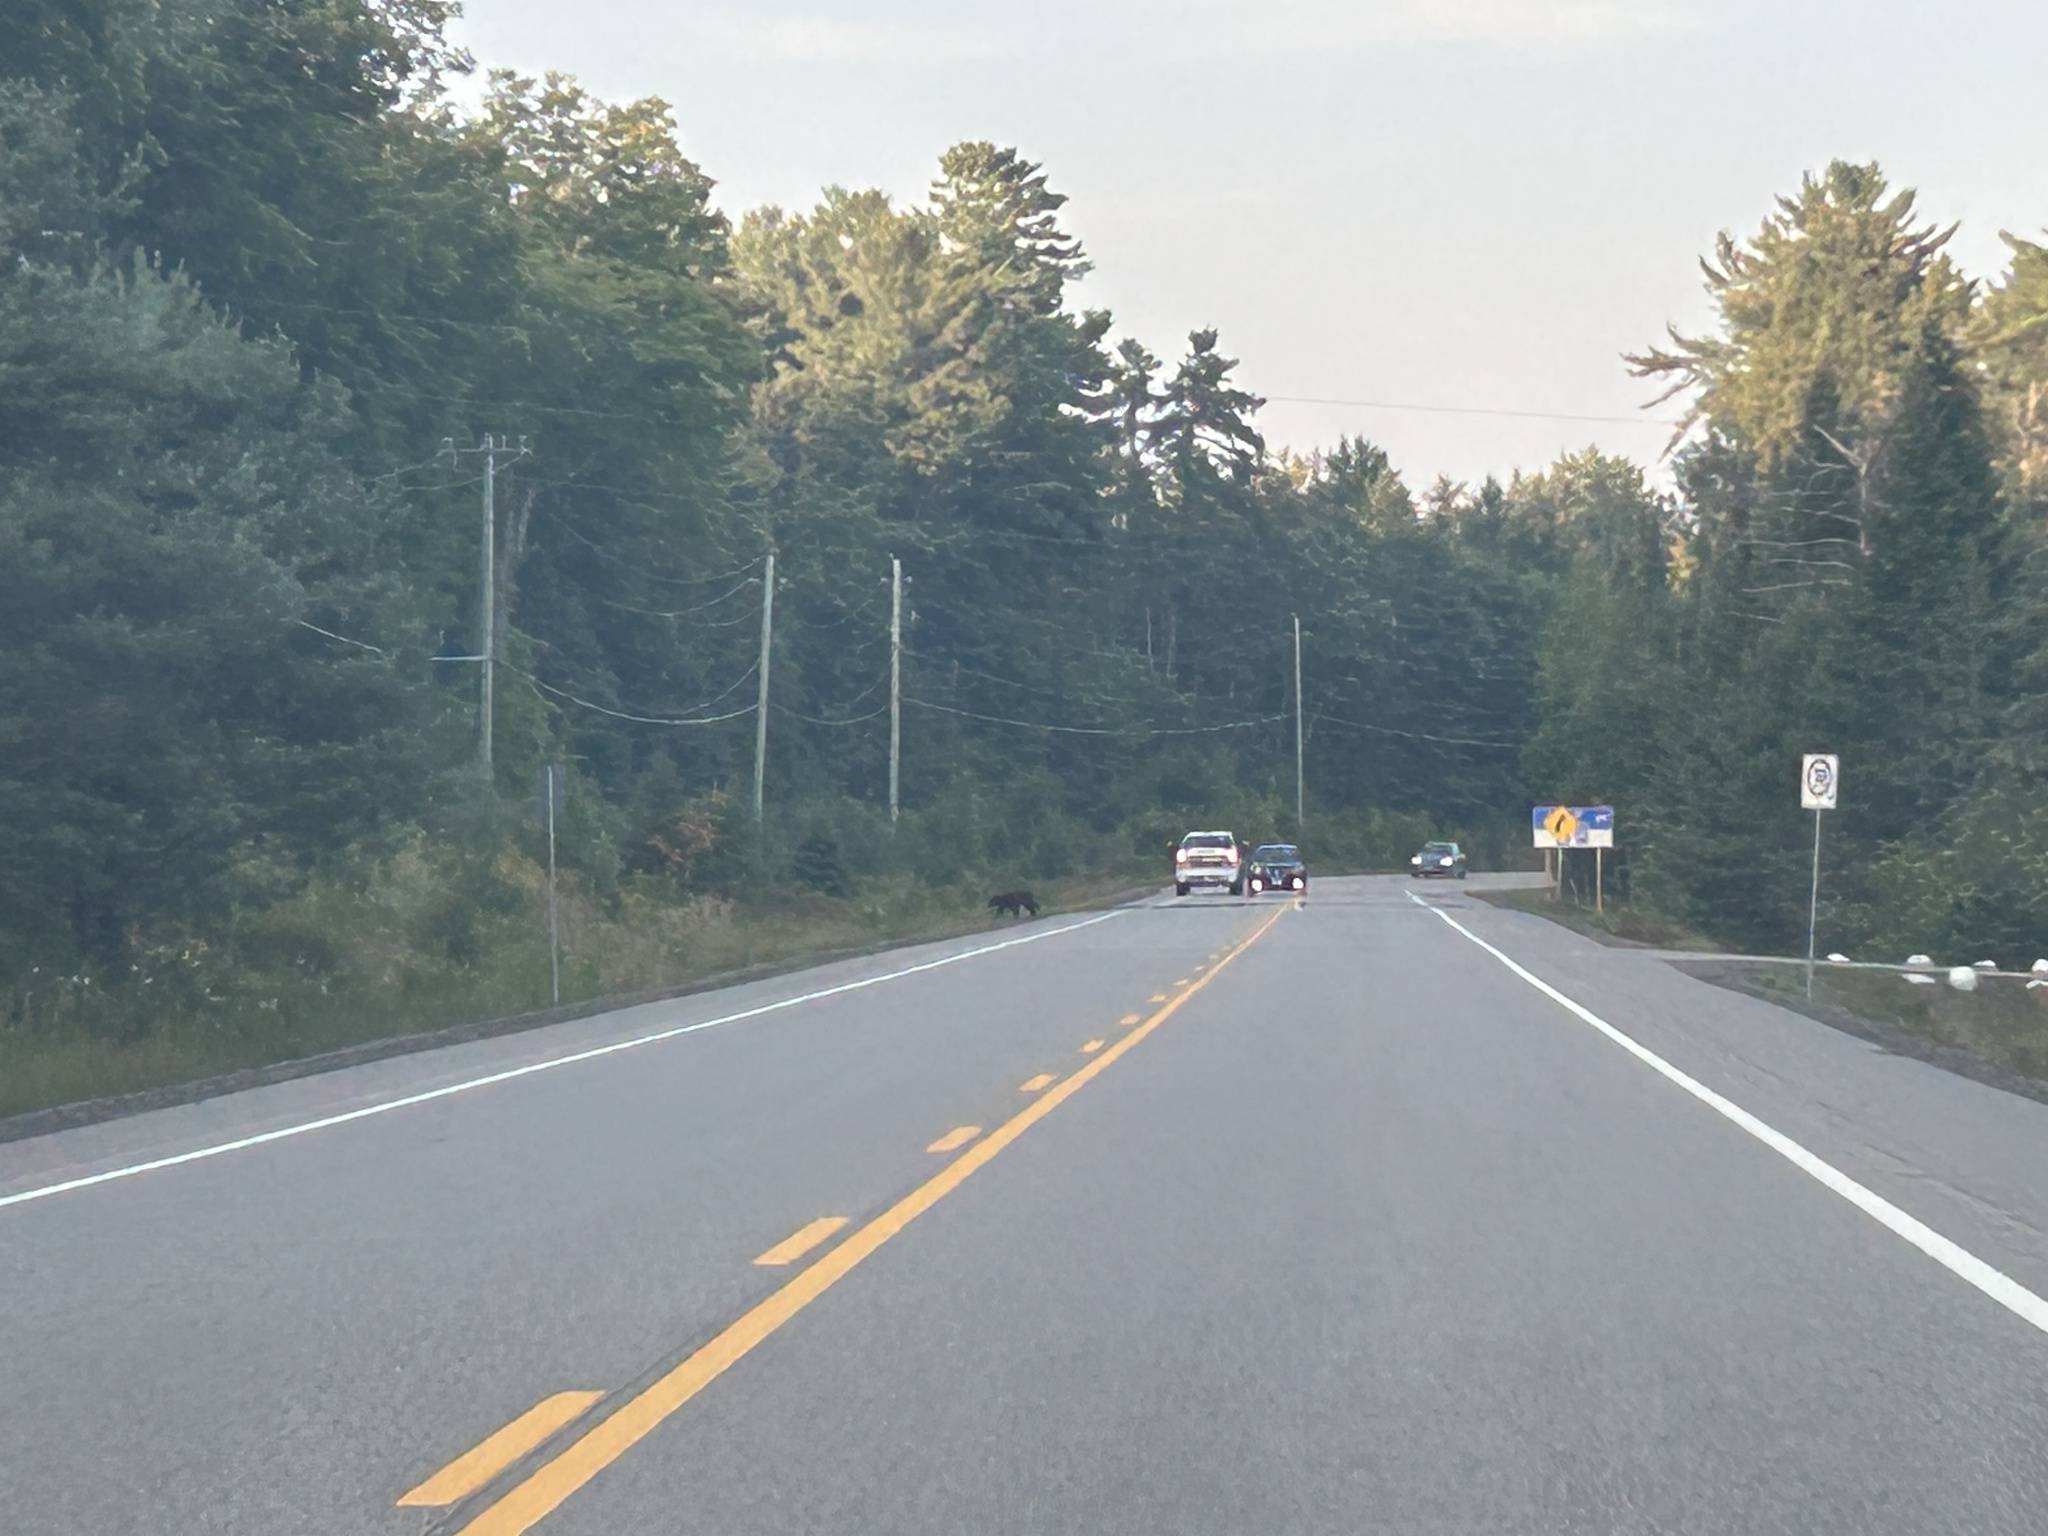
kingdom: Animalia
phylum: Chordata
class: Mammalia
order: Carnivora
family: Ursidae
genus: Ursus
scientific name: Ursus americanus
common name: American black bear
